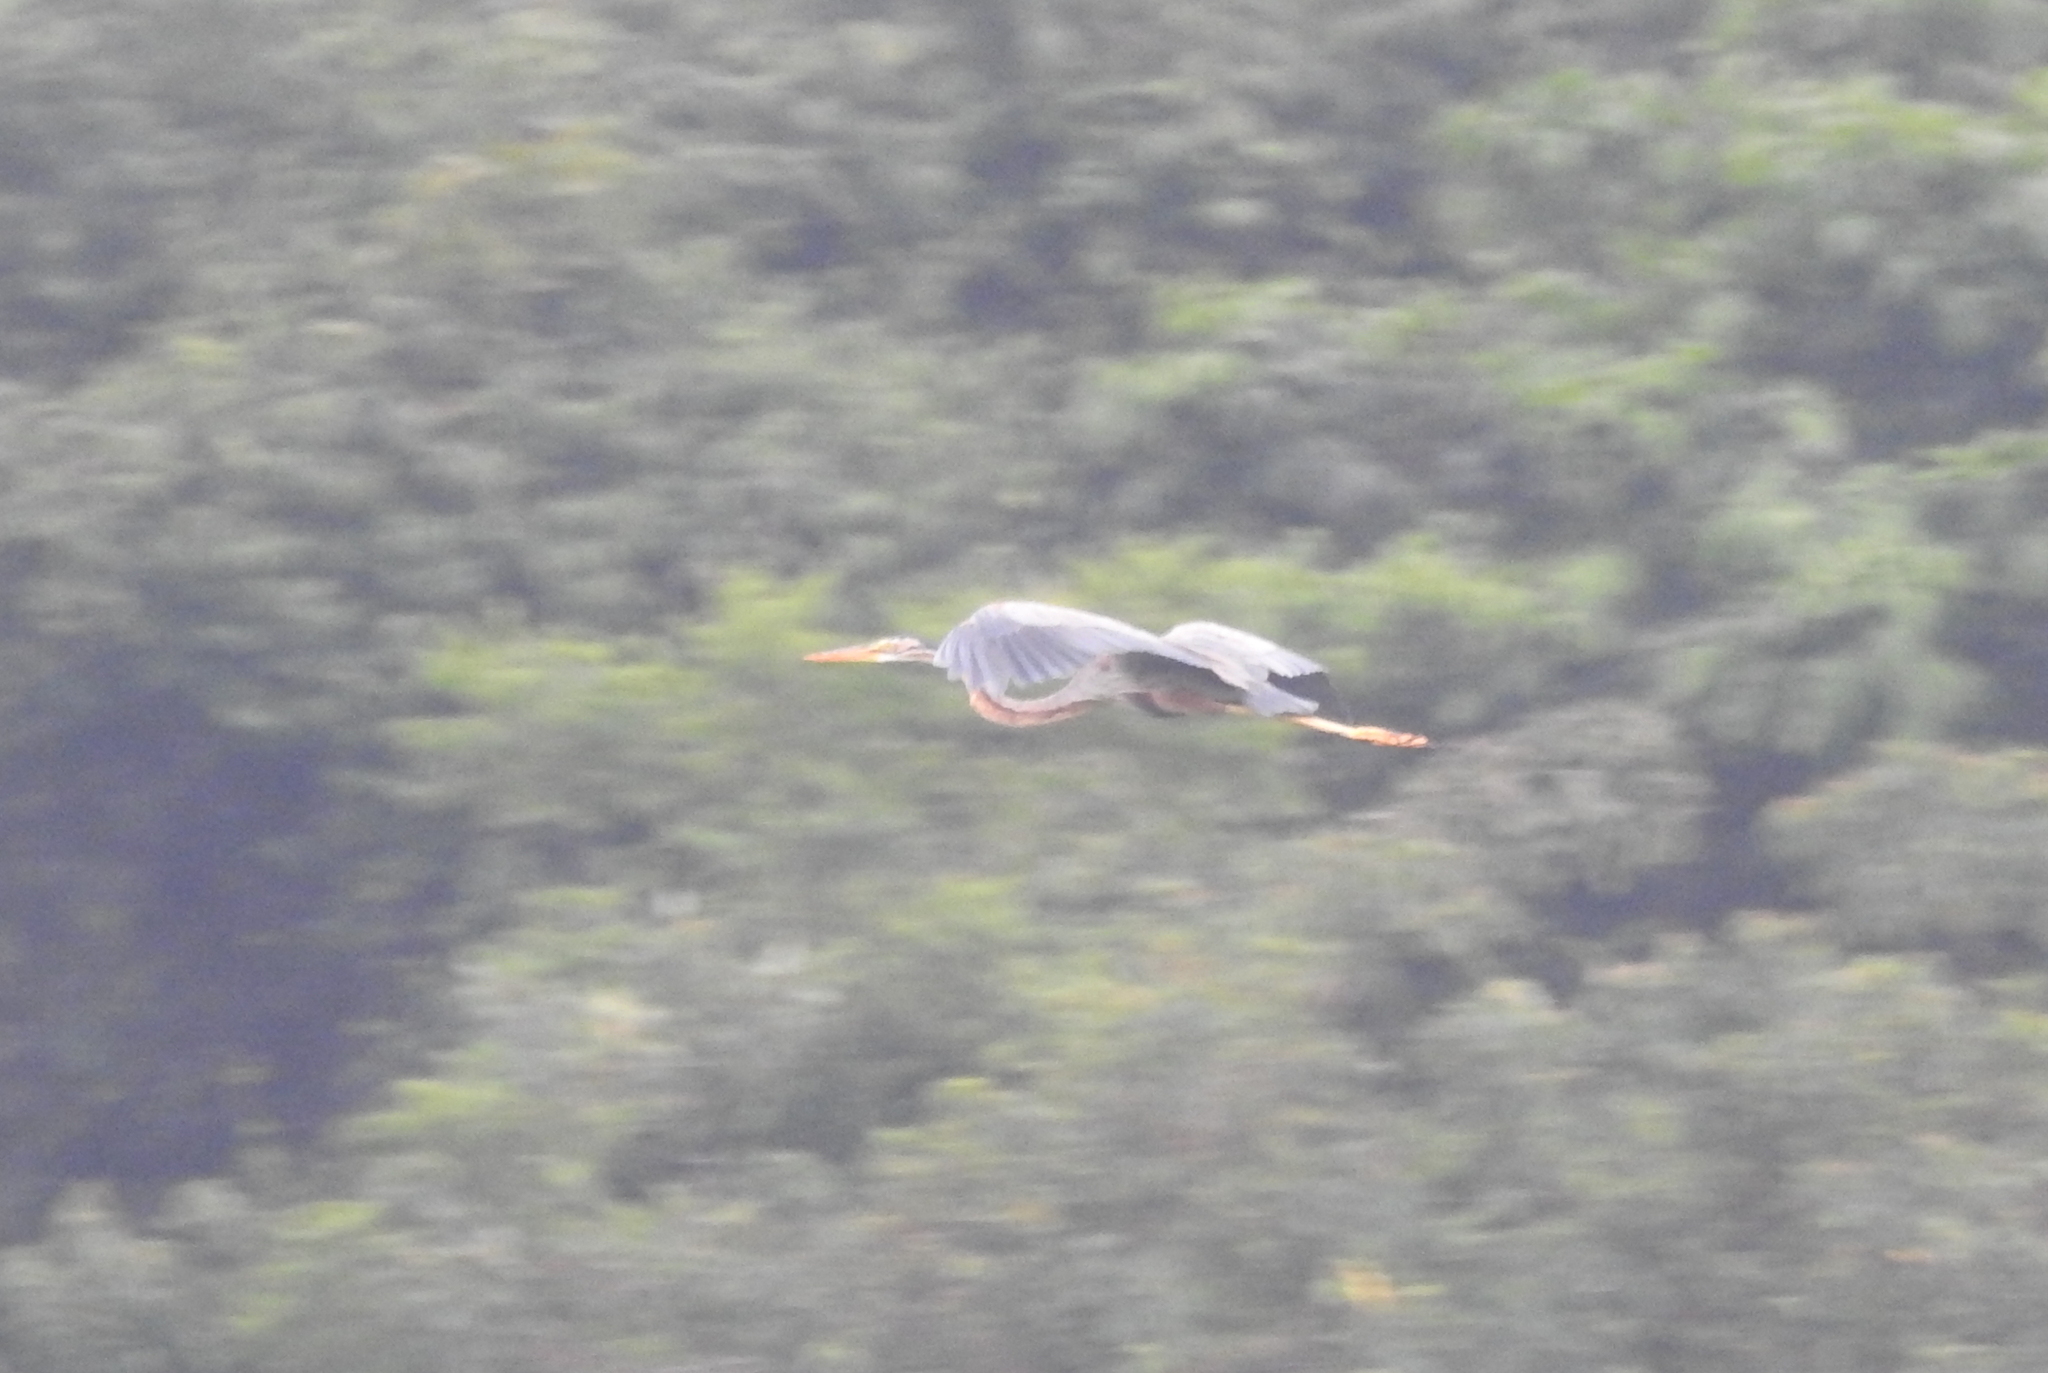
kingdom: Animalia
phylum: Chordata
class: Aves
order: Pelecaniformes
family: Ardeidae
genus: Ardea
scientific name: Ardea purpurea
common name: Purple heron
